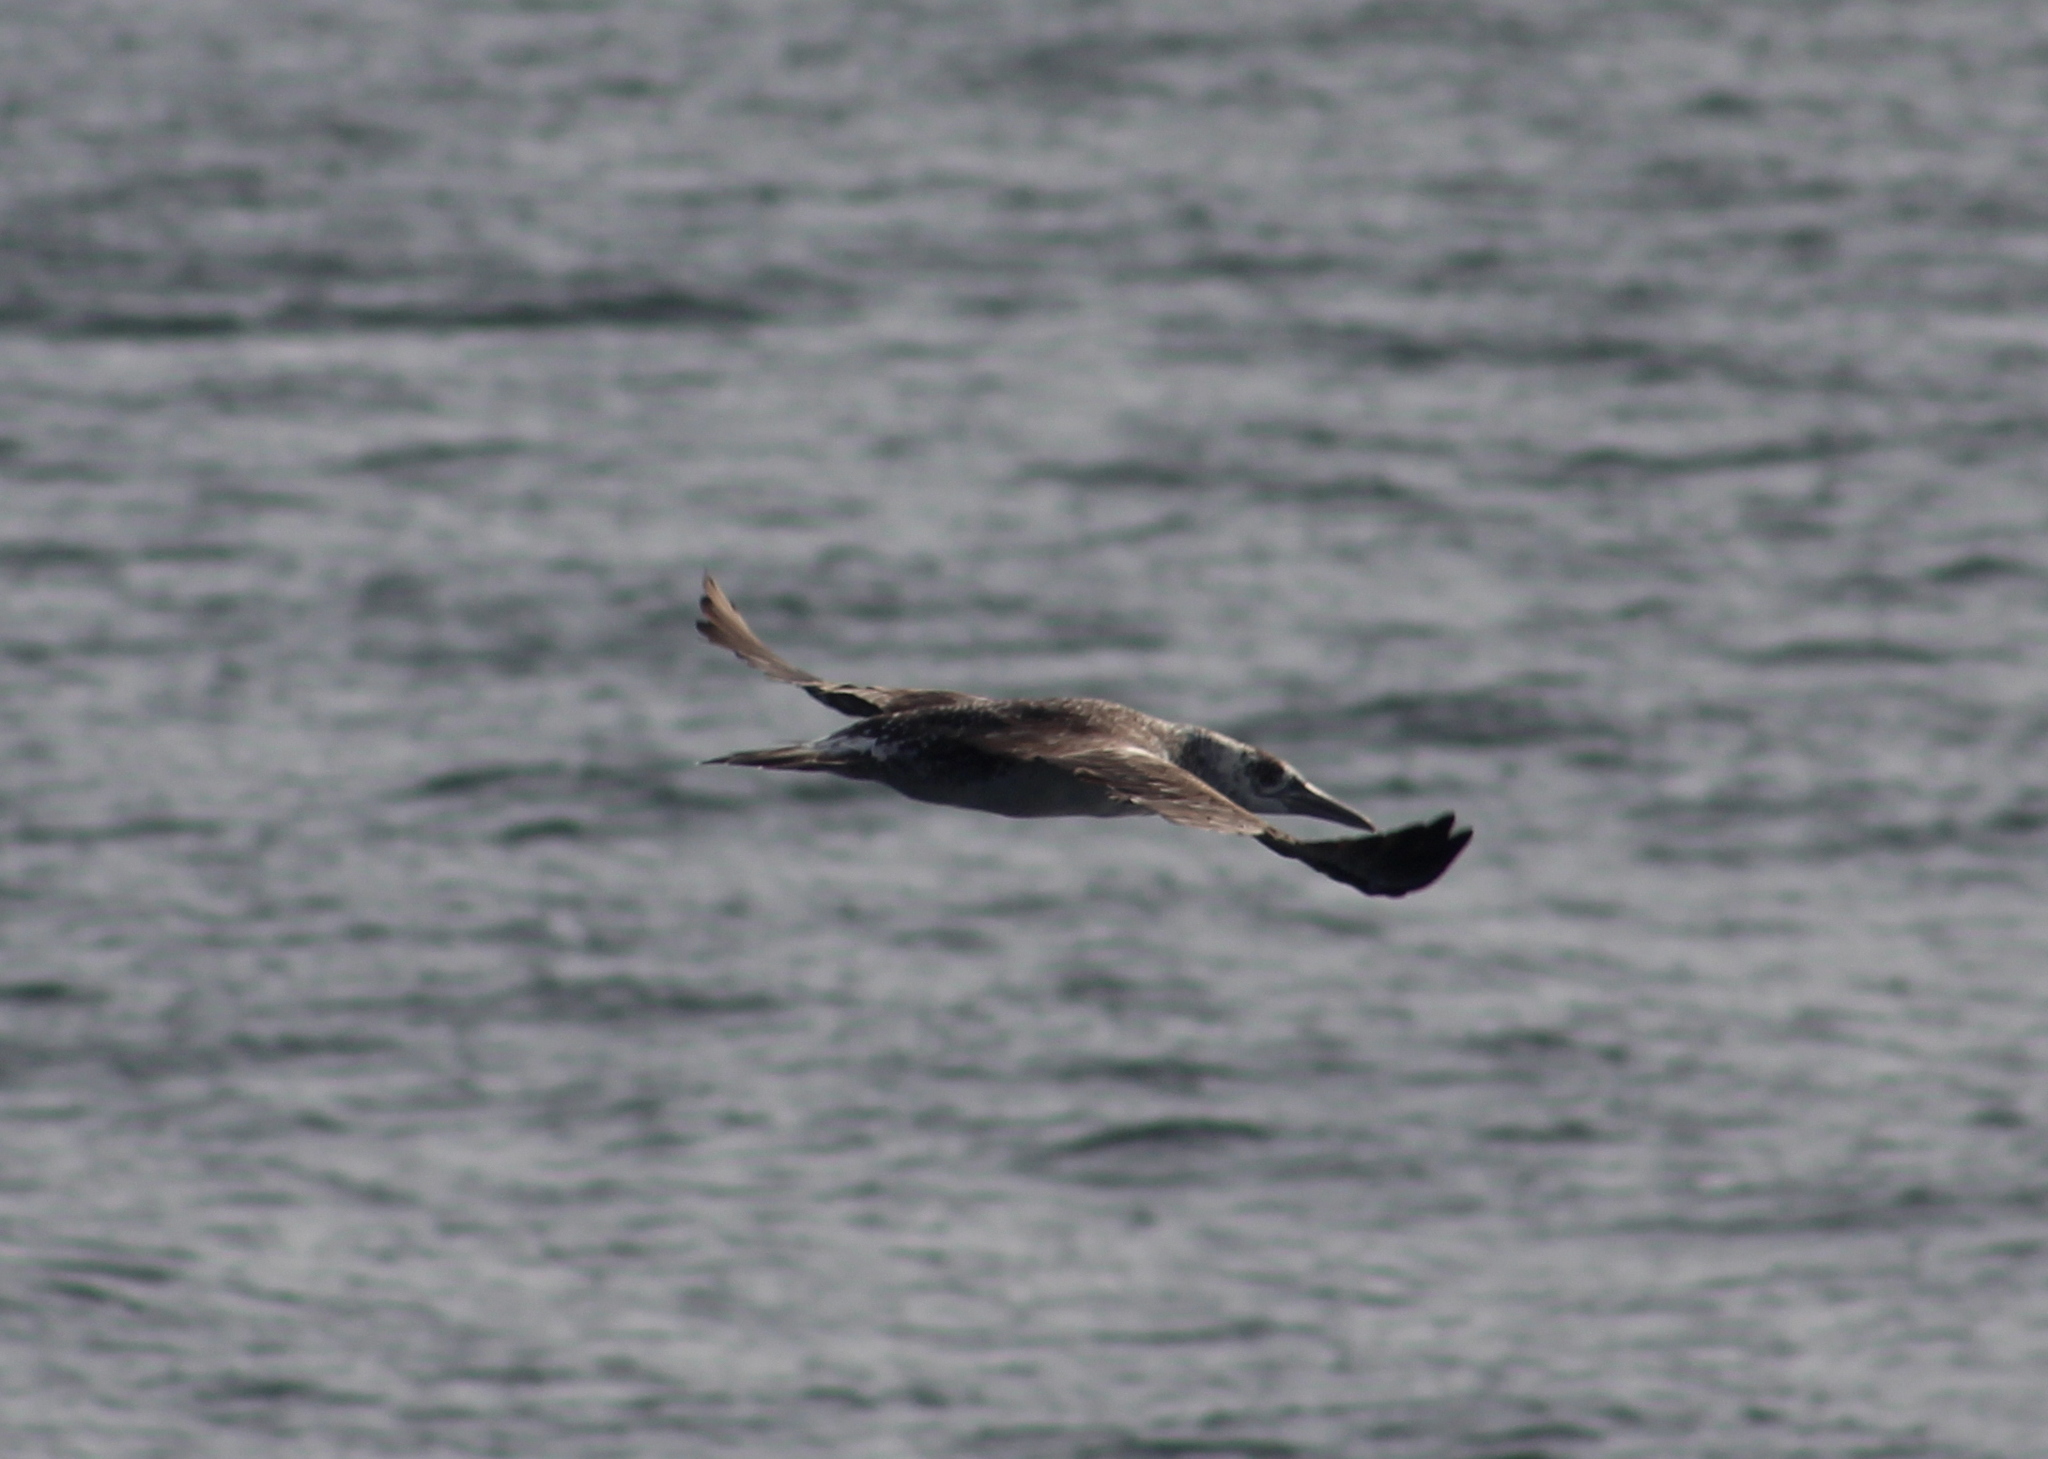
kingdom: Animalia
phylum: Chordata
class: Aves
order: Suliformes
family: Sulidae
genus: Morus
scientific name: Morus bassanus
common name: Northern gannet
